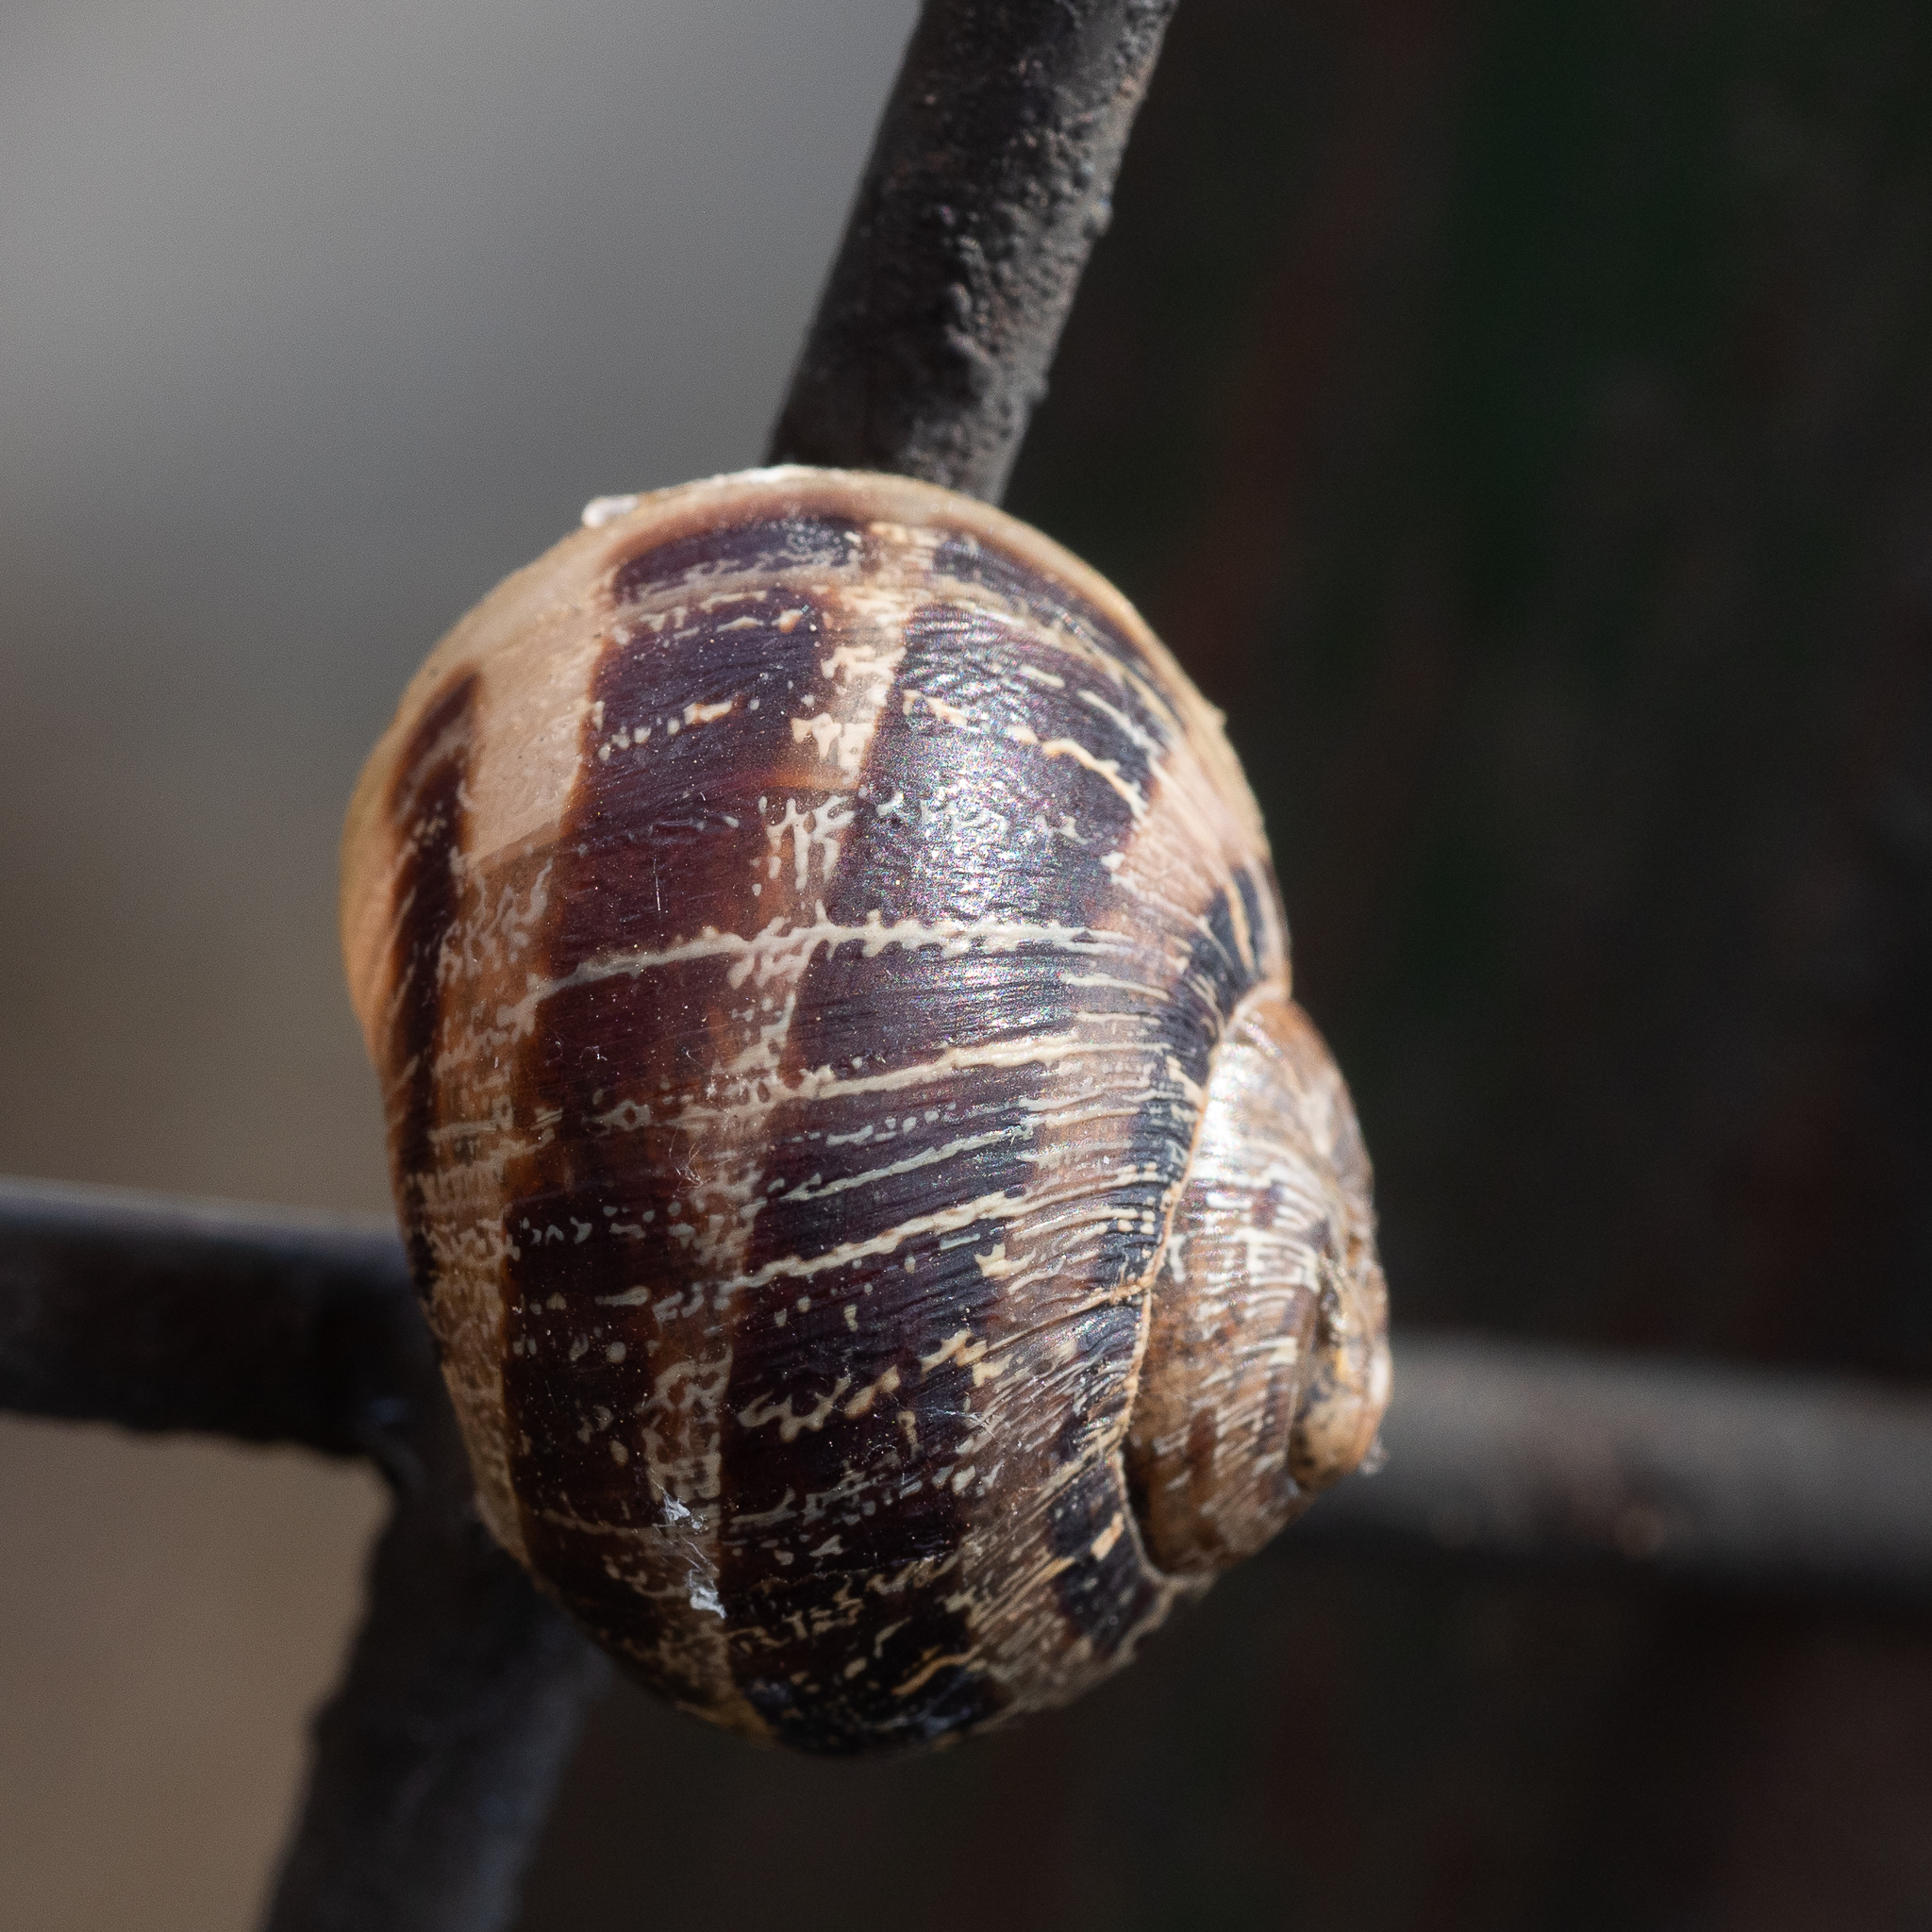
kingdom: Animalia
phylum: Mollusca
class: Gastropoda
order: Stylommatophora
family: Helicidae
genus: Cornu
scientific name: Cornu aspersum
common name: Brown garden snail
